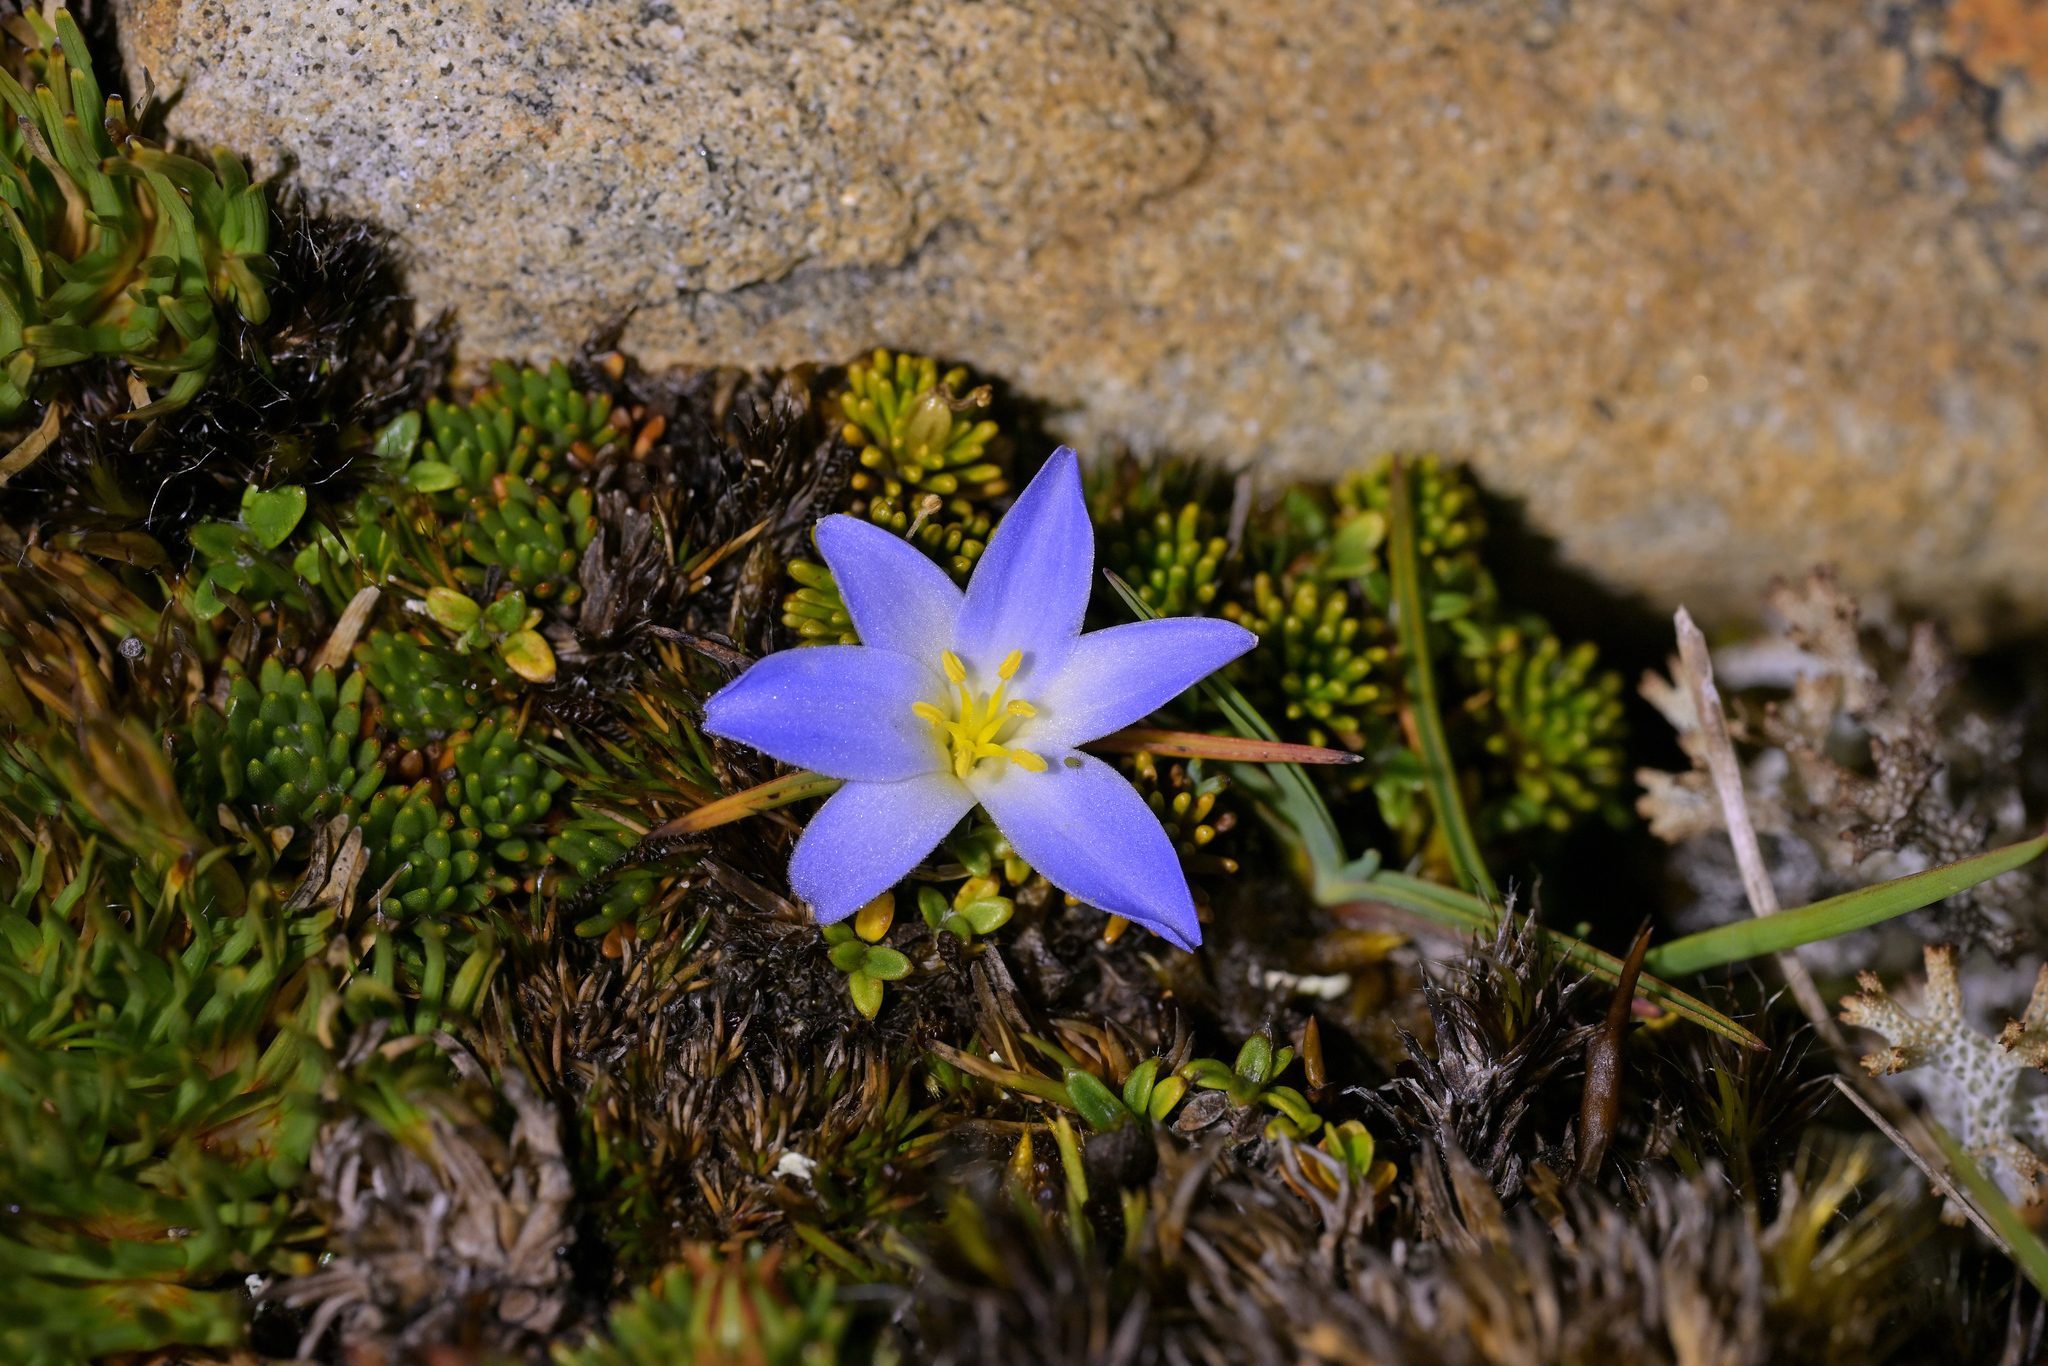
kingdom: Plantae
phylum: Tracheophyta
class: Liliopsida
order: Asparagales
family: Asphodelaceae
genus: Herpolirion
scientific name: Herpolirion novae-zelandiae
